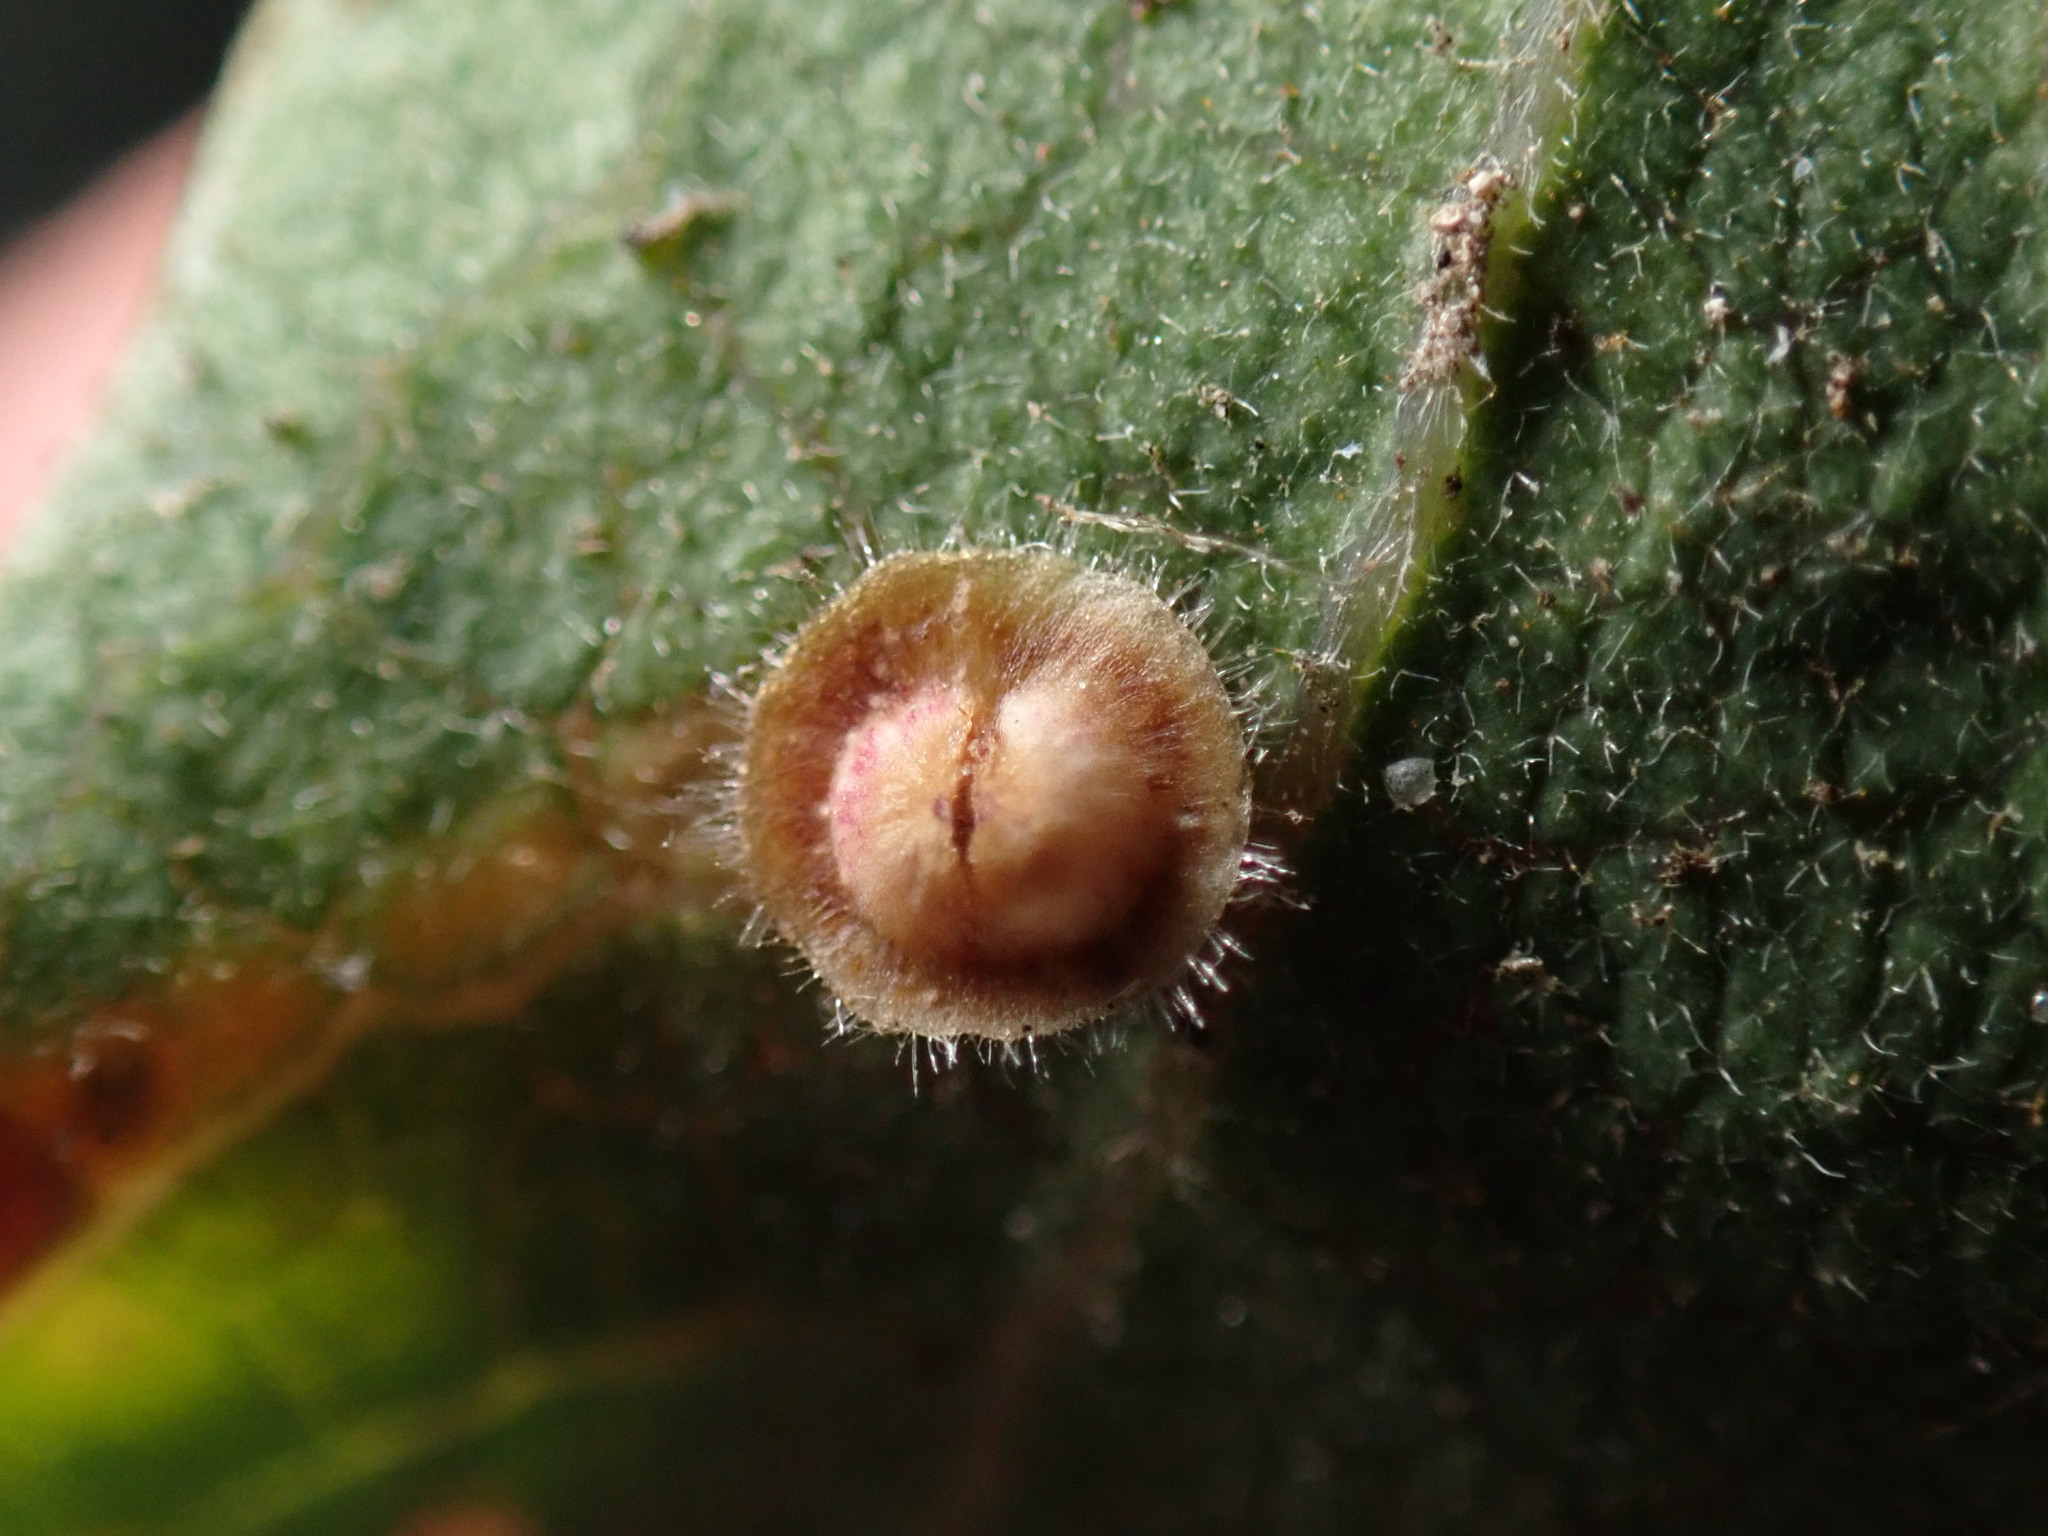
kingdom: Animalia
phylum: Arthropoda
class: Insecta
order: Hymenoptera
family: Cynipidae
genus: Andricus
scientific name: Andricus
